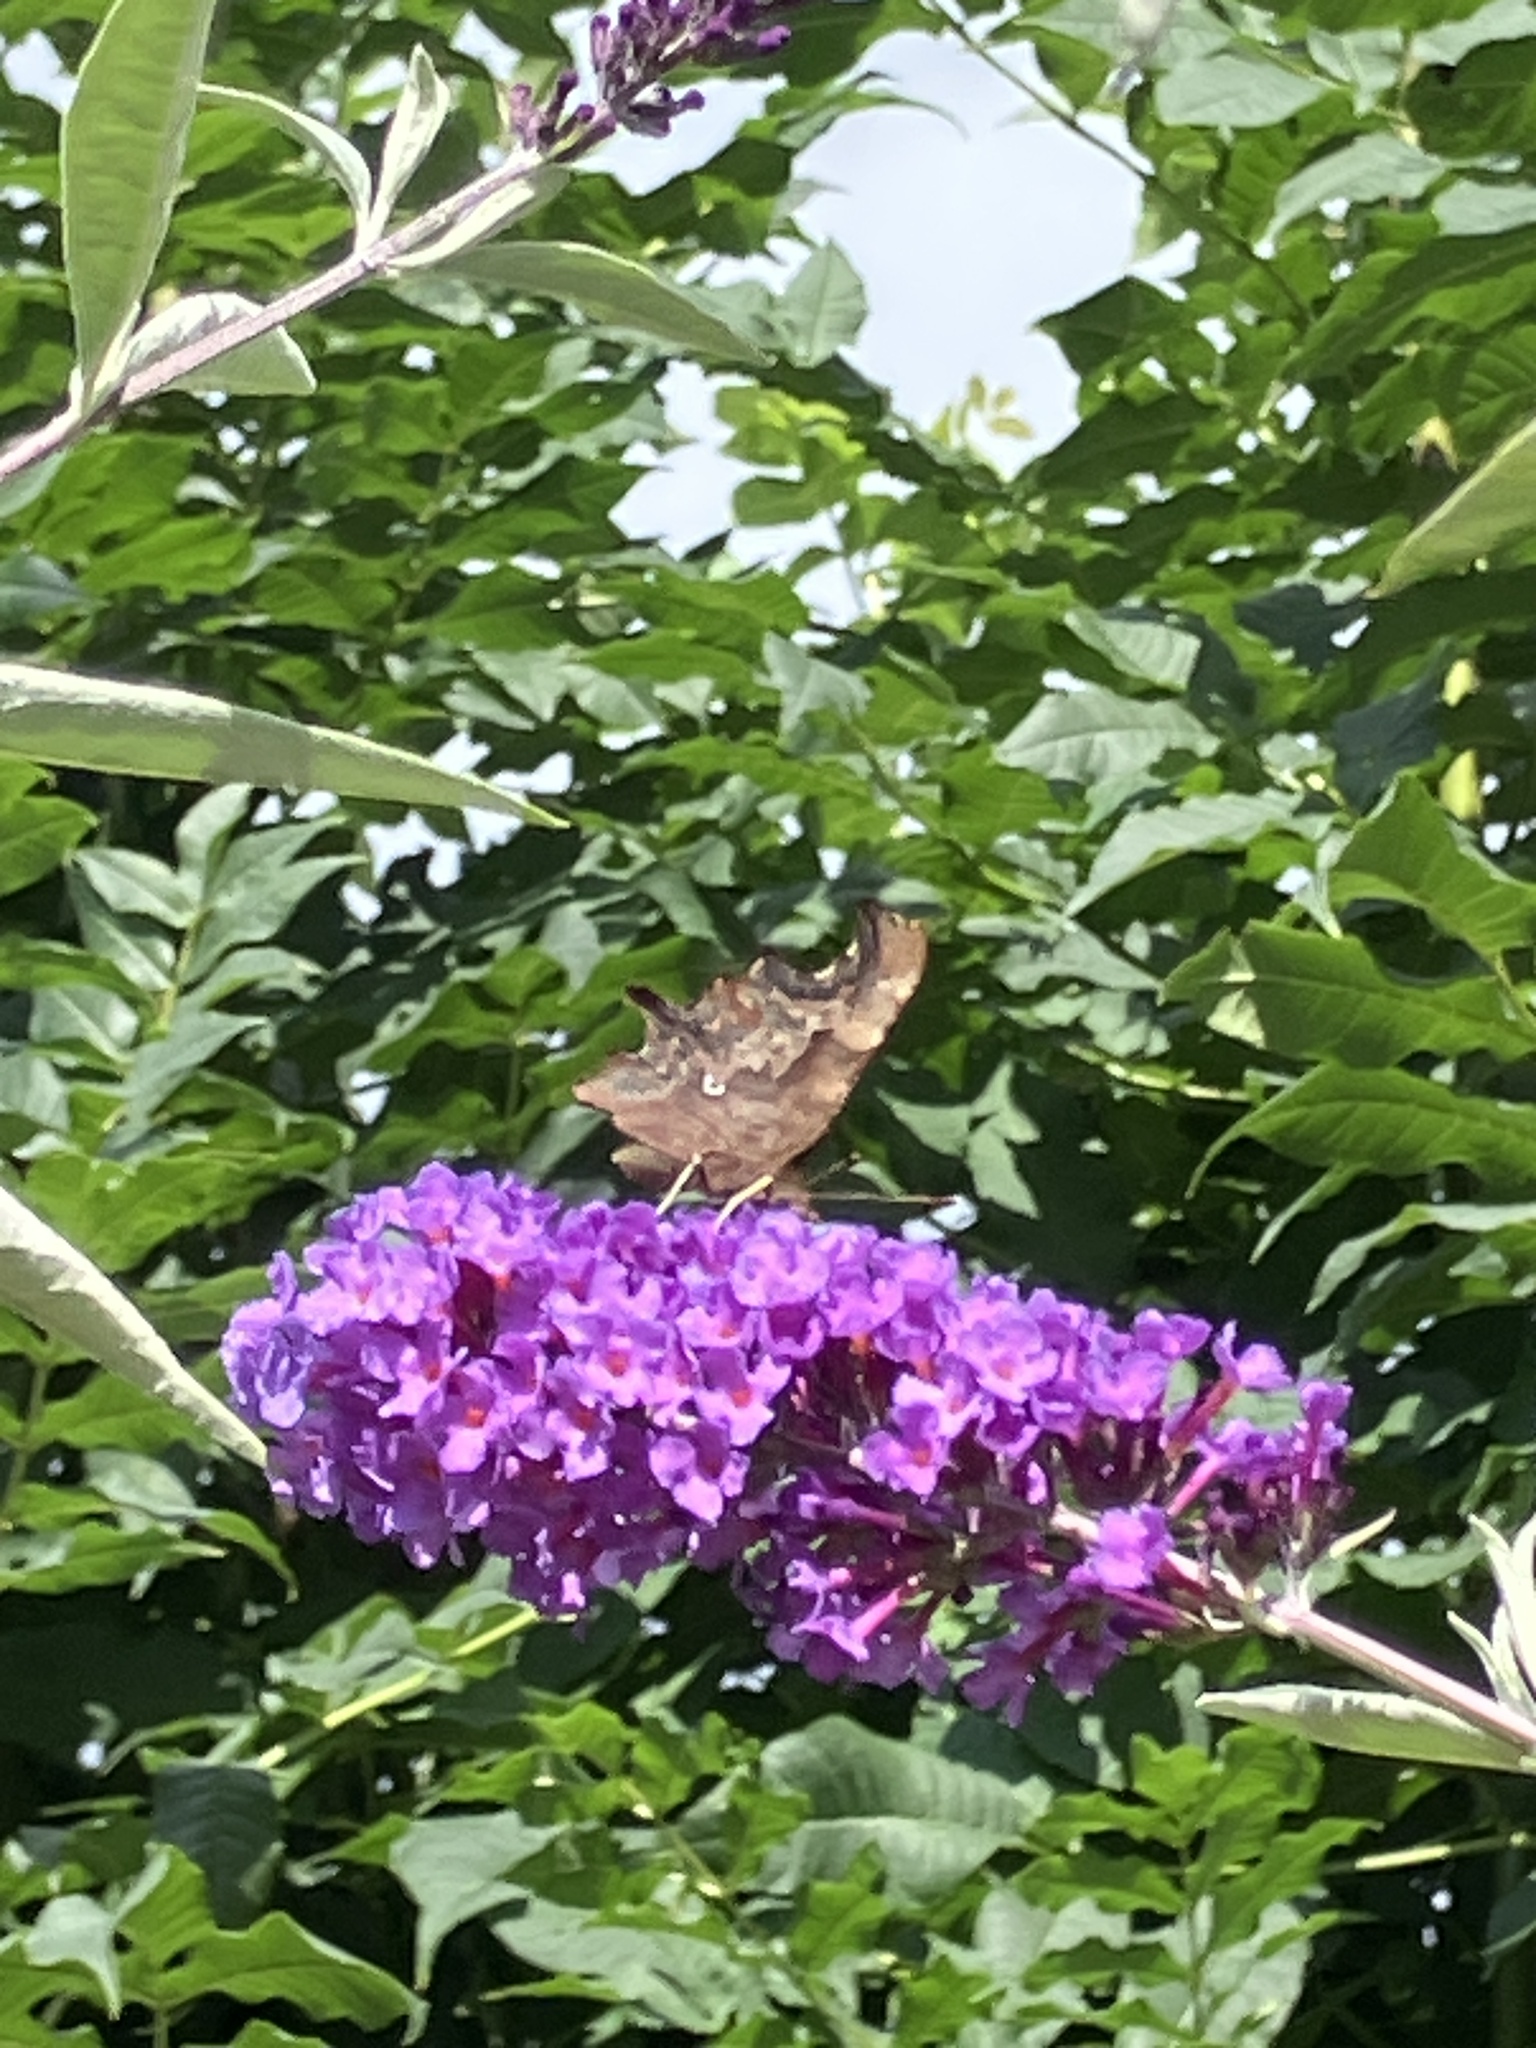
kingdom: Animalia
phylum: Arthropoda
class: Insecta
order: Lepidoptera
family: Nymphalidae
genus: Polygonia
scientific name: Polygonia c-album
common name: Comma
